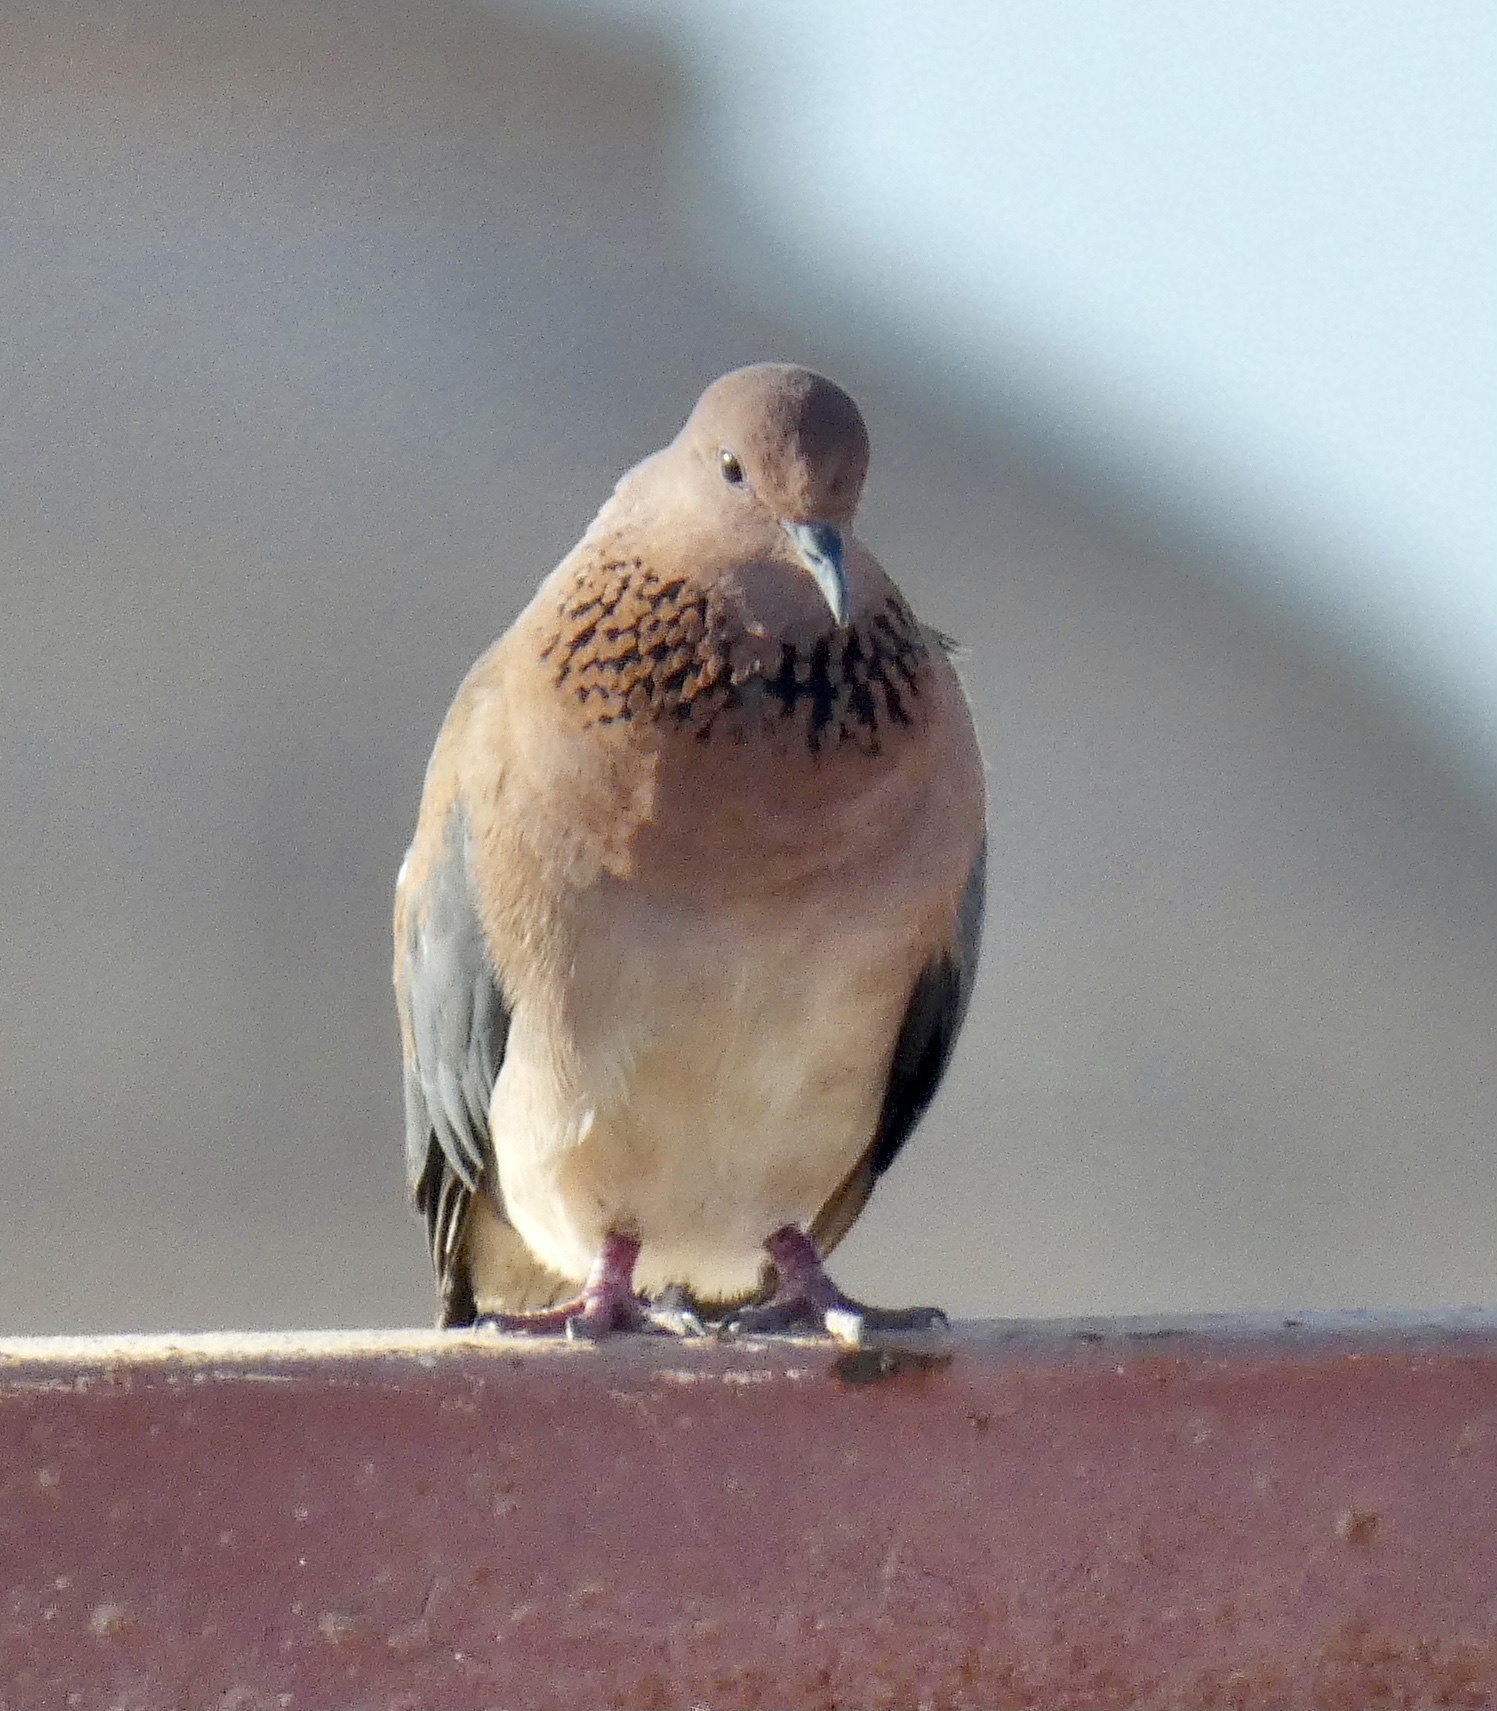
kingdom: Animalia
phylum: Chordata
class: Aves
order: Columbiformes
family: Columbidae
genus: Spilopelia
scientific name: Spilopelia senegalensis
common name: Laughing dove
